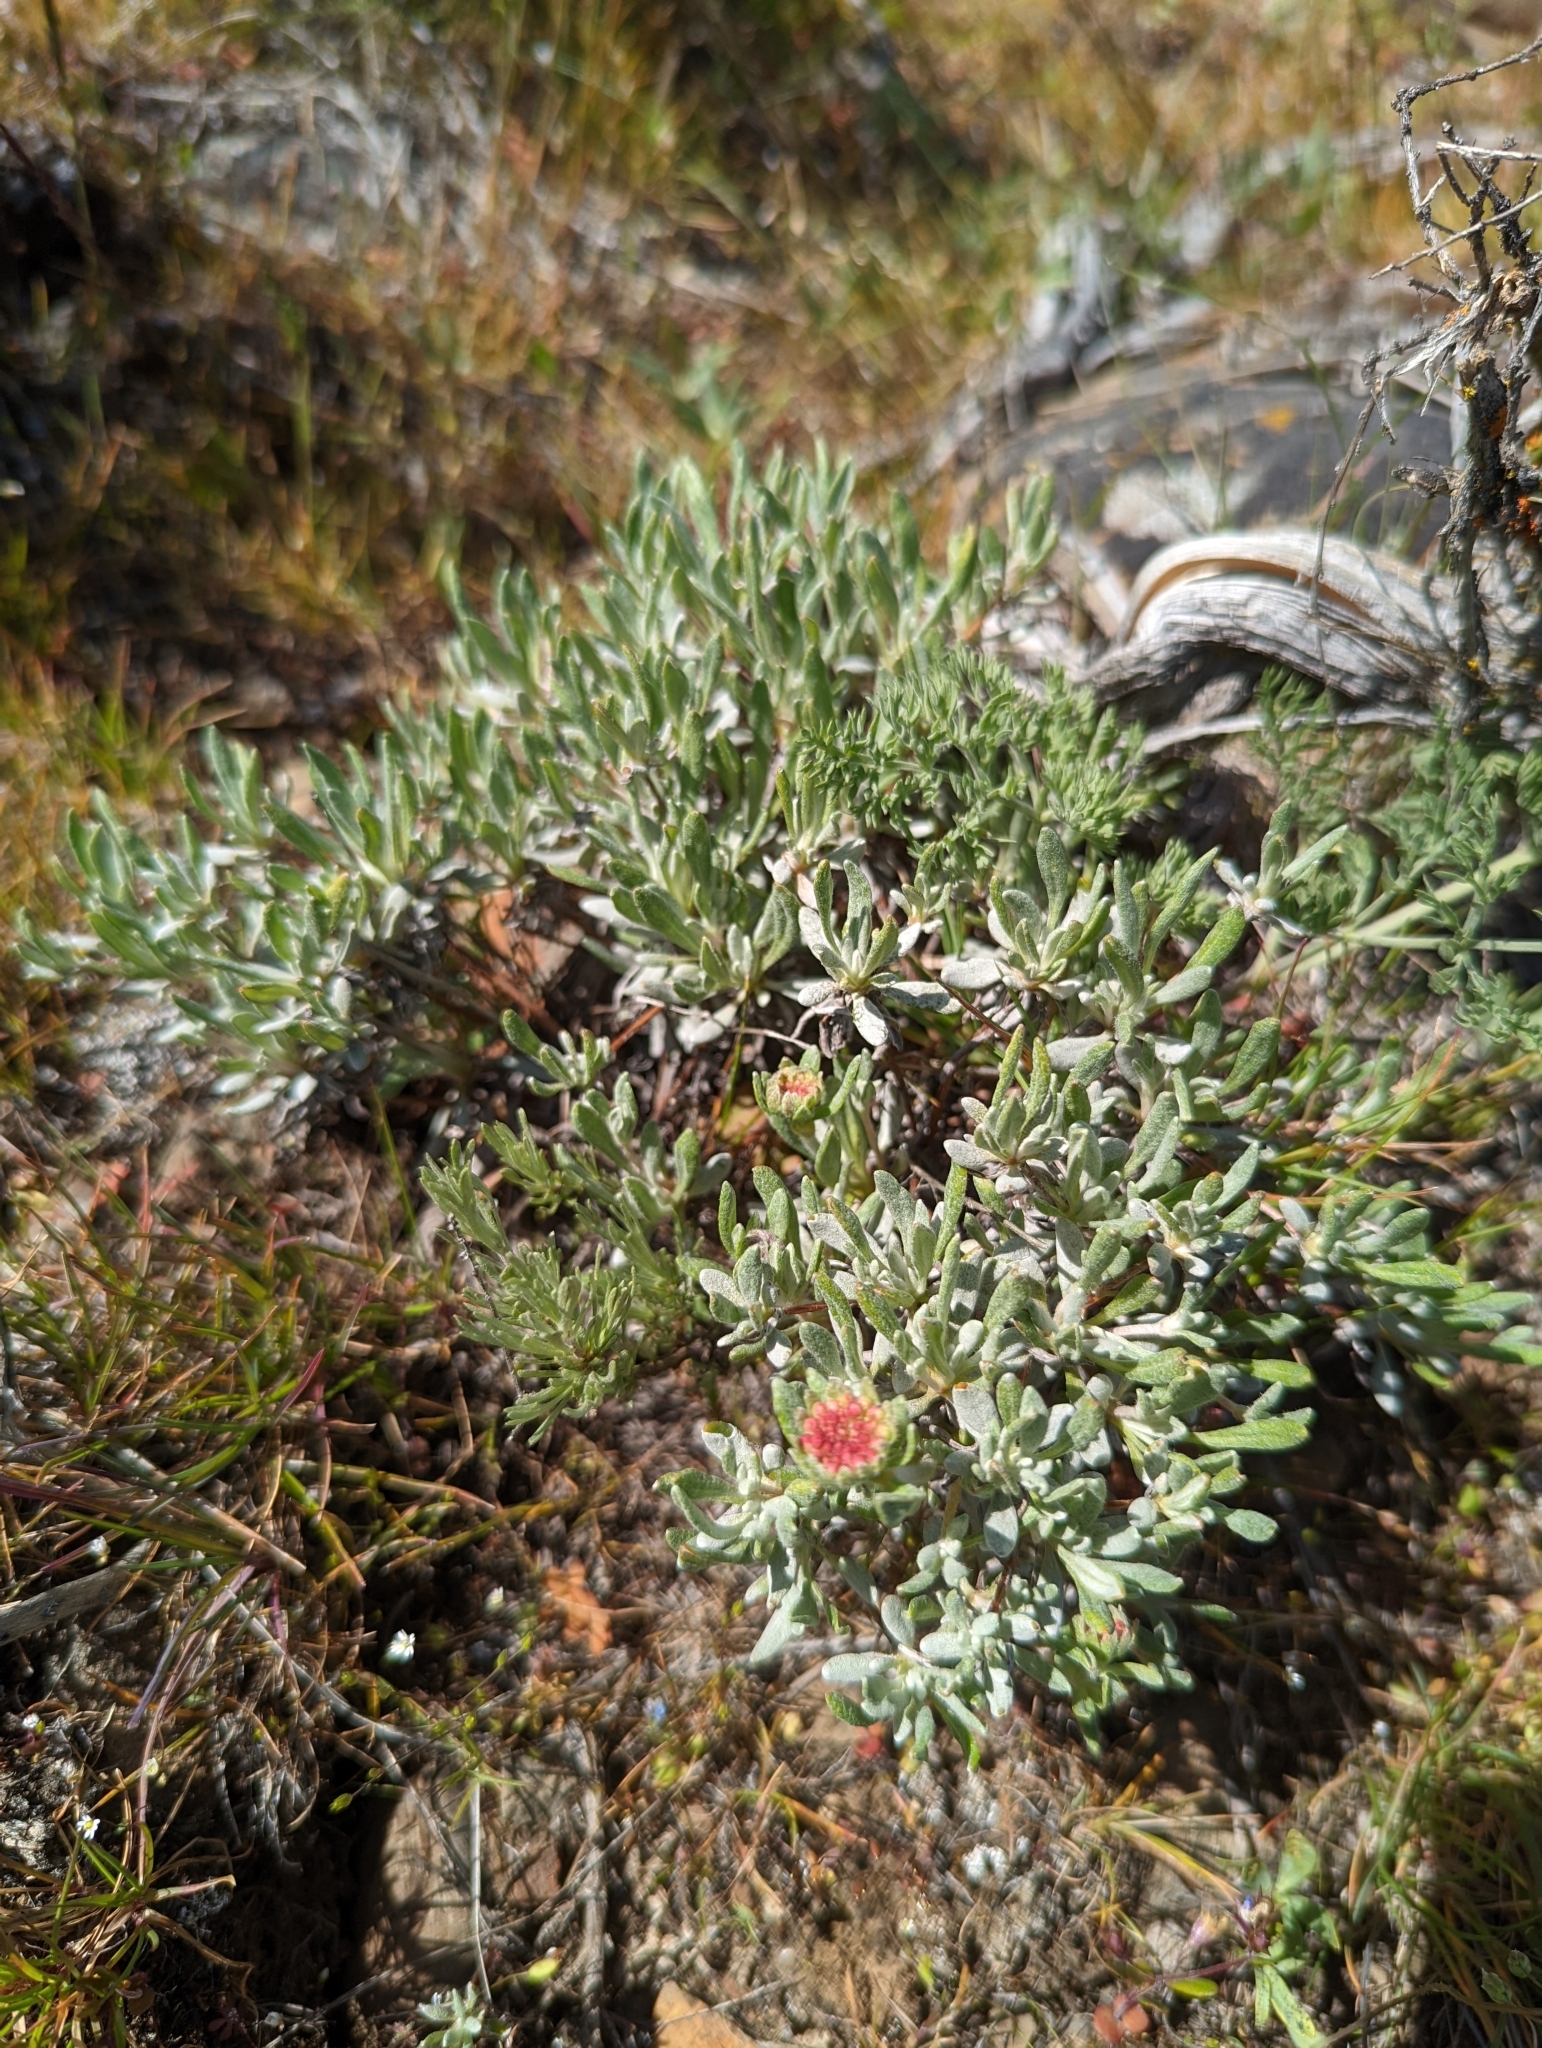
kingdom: Plantae
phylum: Tracheophyta
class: Magnoliopsida
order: Caryophyllales
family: Polygonaceae
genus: Eriogonum
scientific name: Eriogonum douglasii
